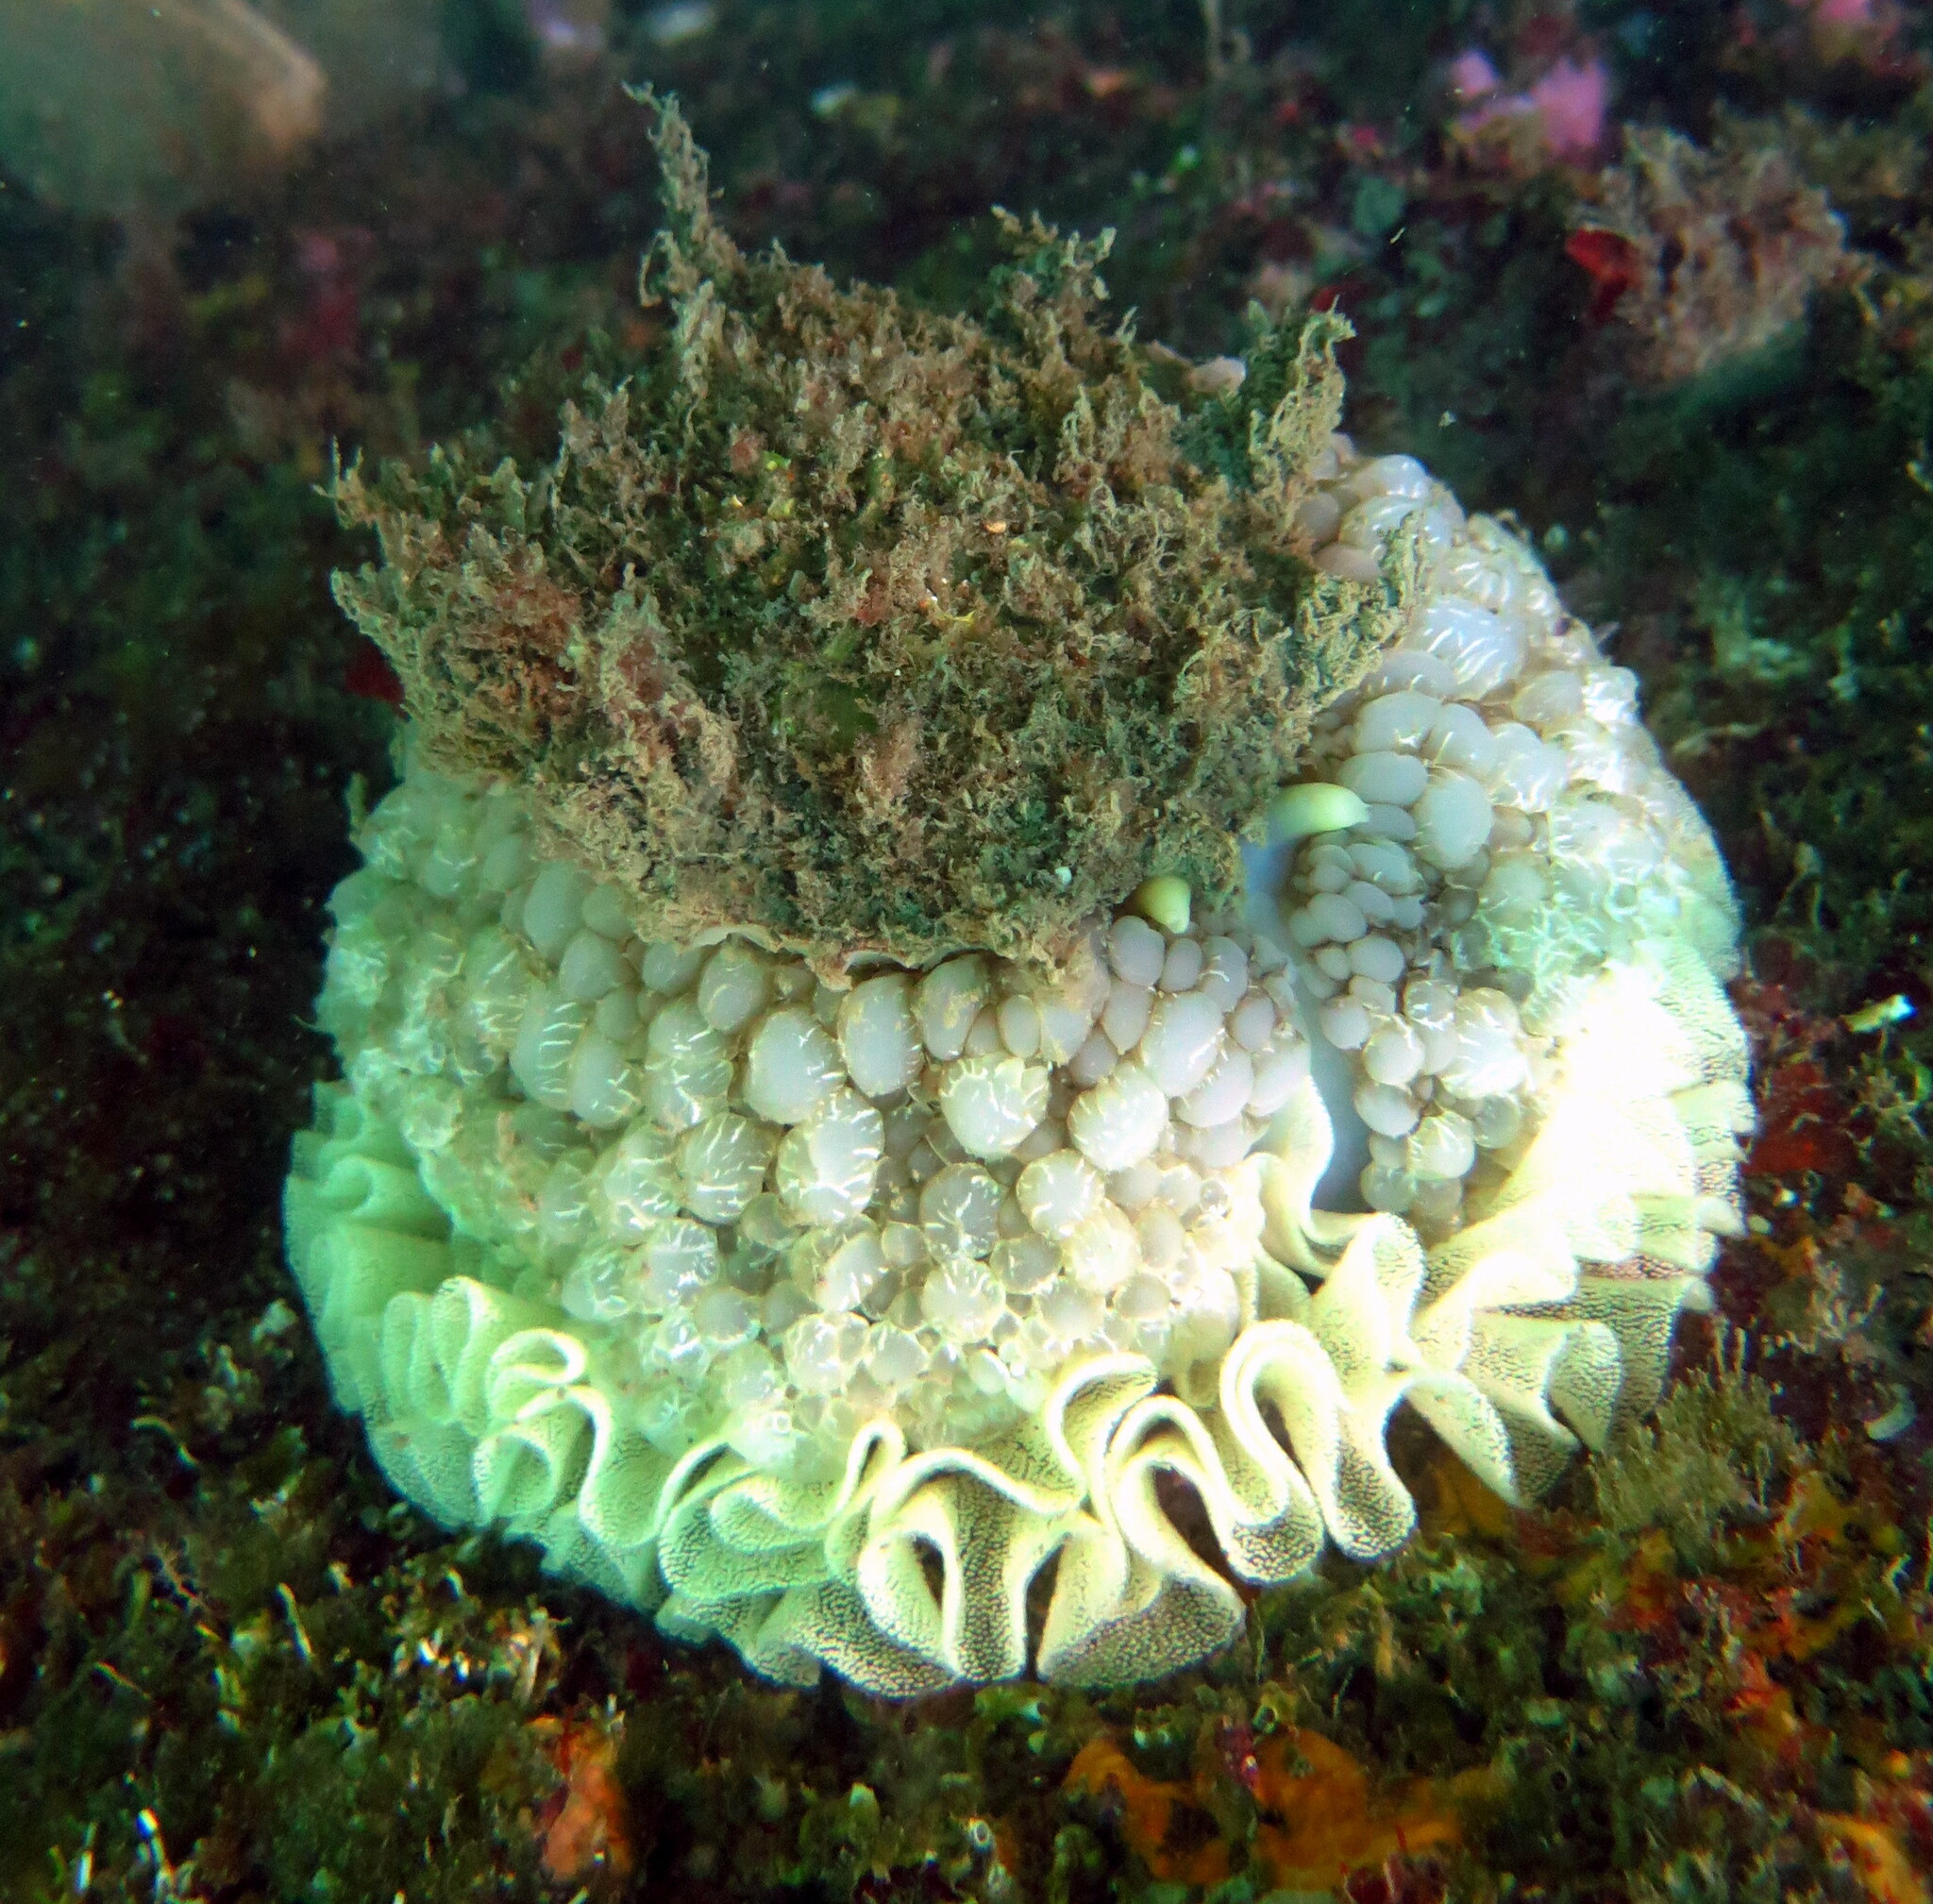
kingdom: Animalia
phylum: Mollusca
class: Gastropoda
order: Umbraculida
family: Umbraculidae
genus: Umbraculum
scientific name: Umbraculum umbraculum
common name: Atlantic umbrella slug
